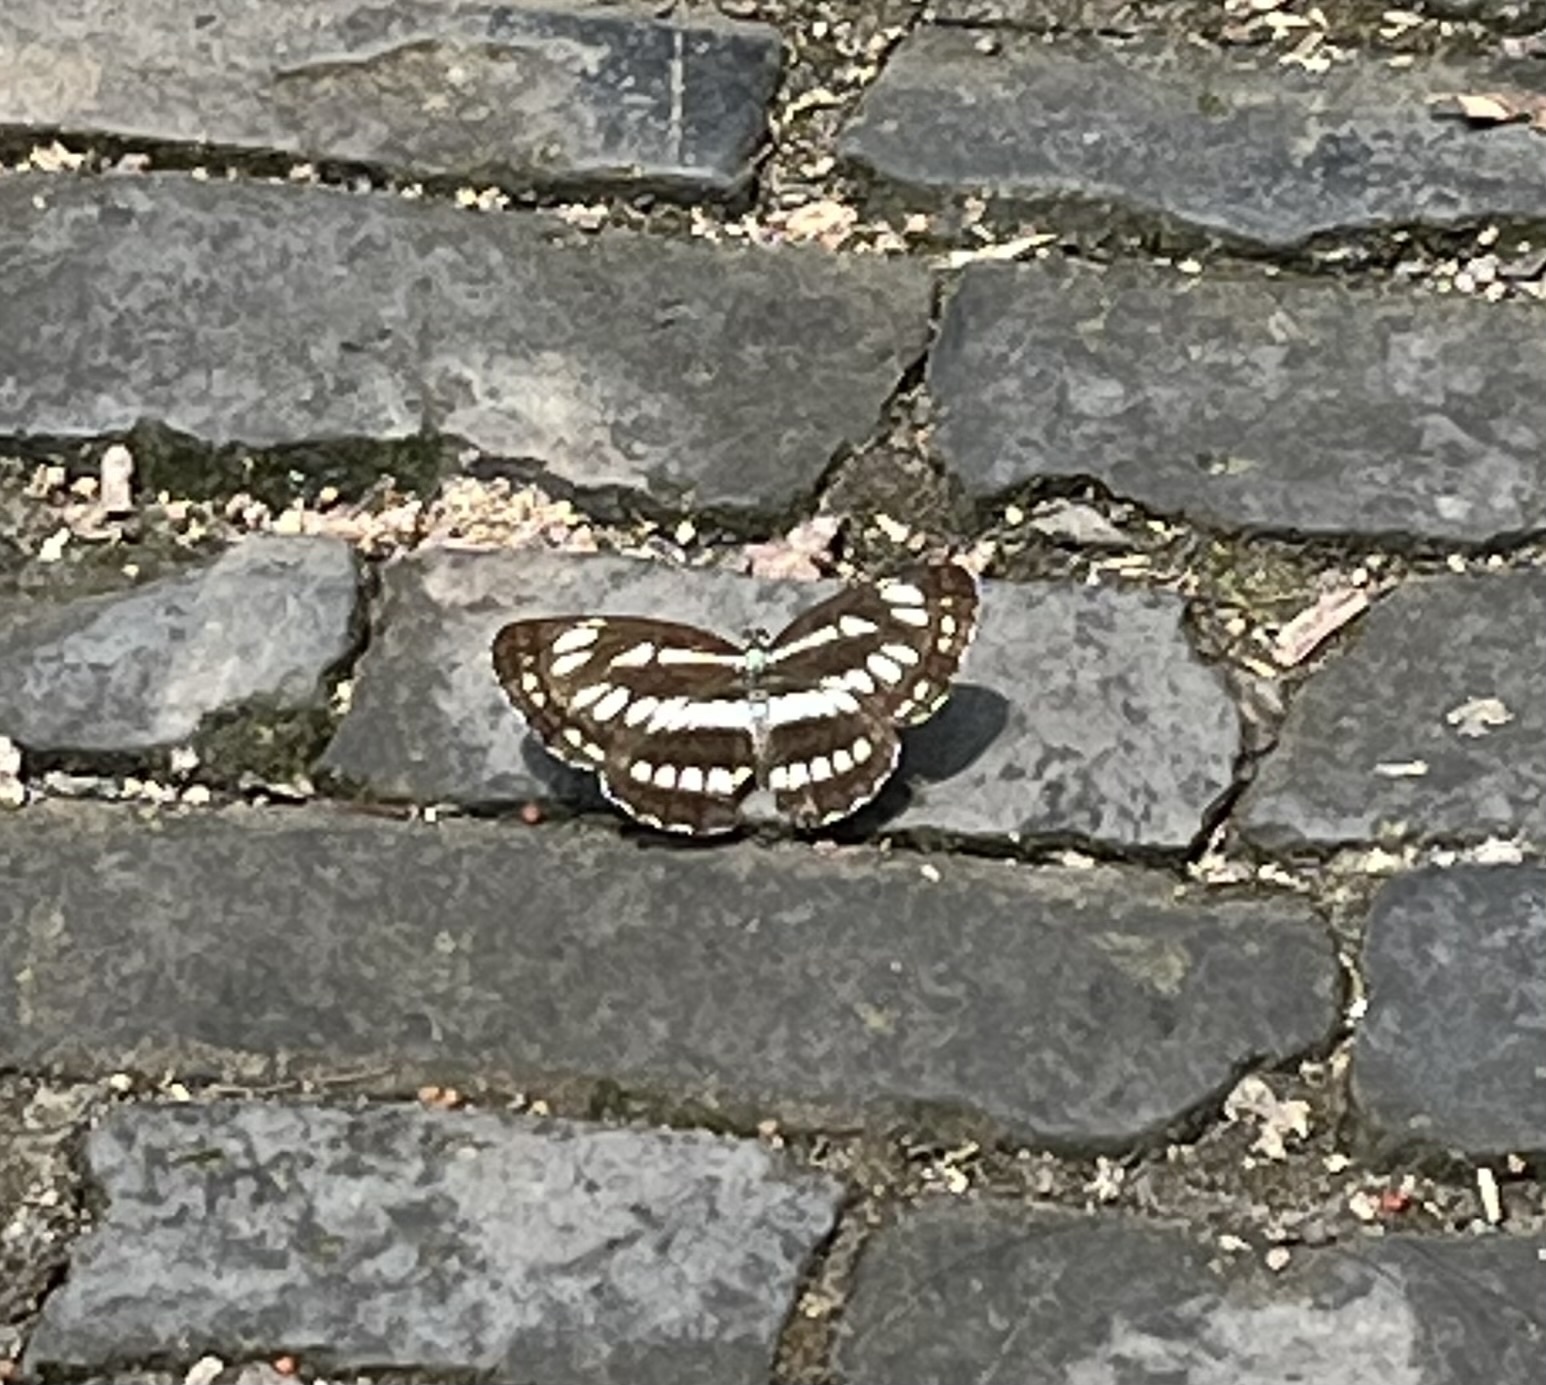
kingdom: Animalia
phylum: Arthropoda
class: Insecta
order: Lepidoptera
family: Nymphalidae
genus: Neptis
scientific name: Neptis hylas
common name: Common sailer
